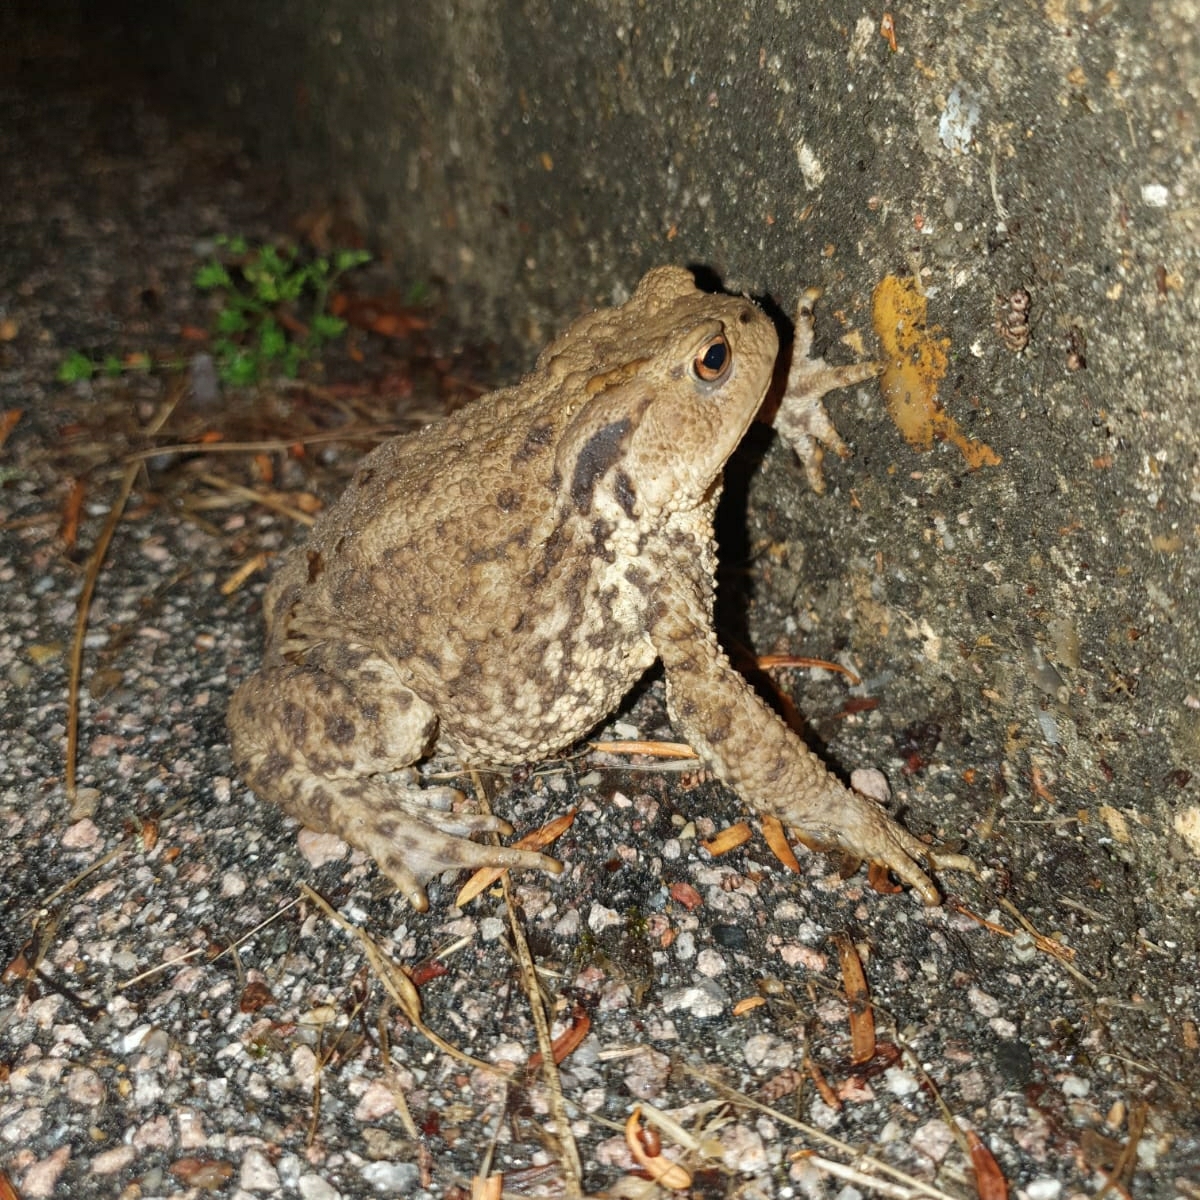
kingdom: Animalia
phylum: Chordata
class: Amphibia
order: Anura
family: Bufonidae
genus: Bufo
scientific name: Bufo bufo
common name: Common toad
